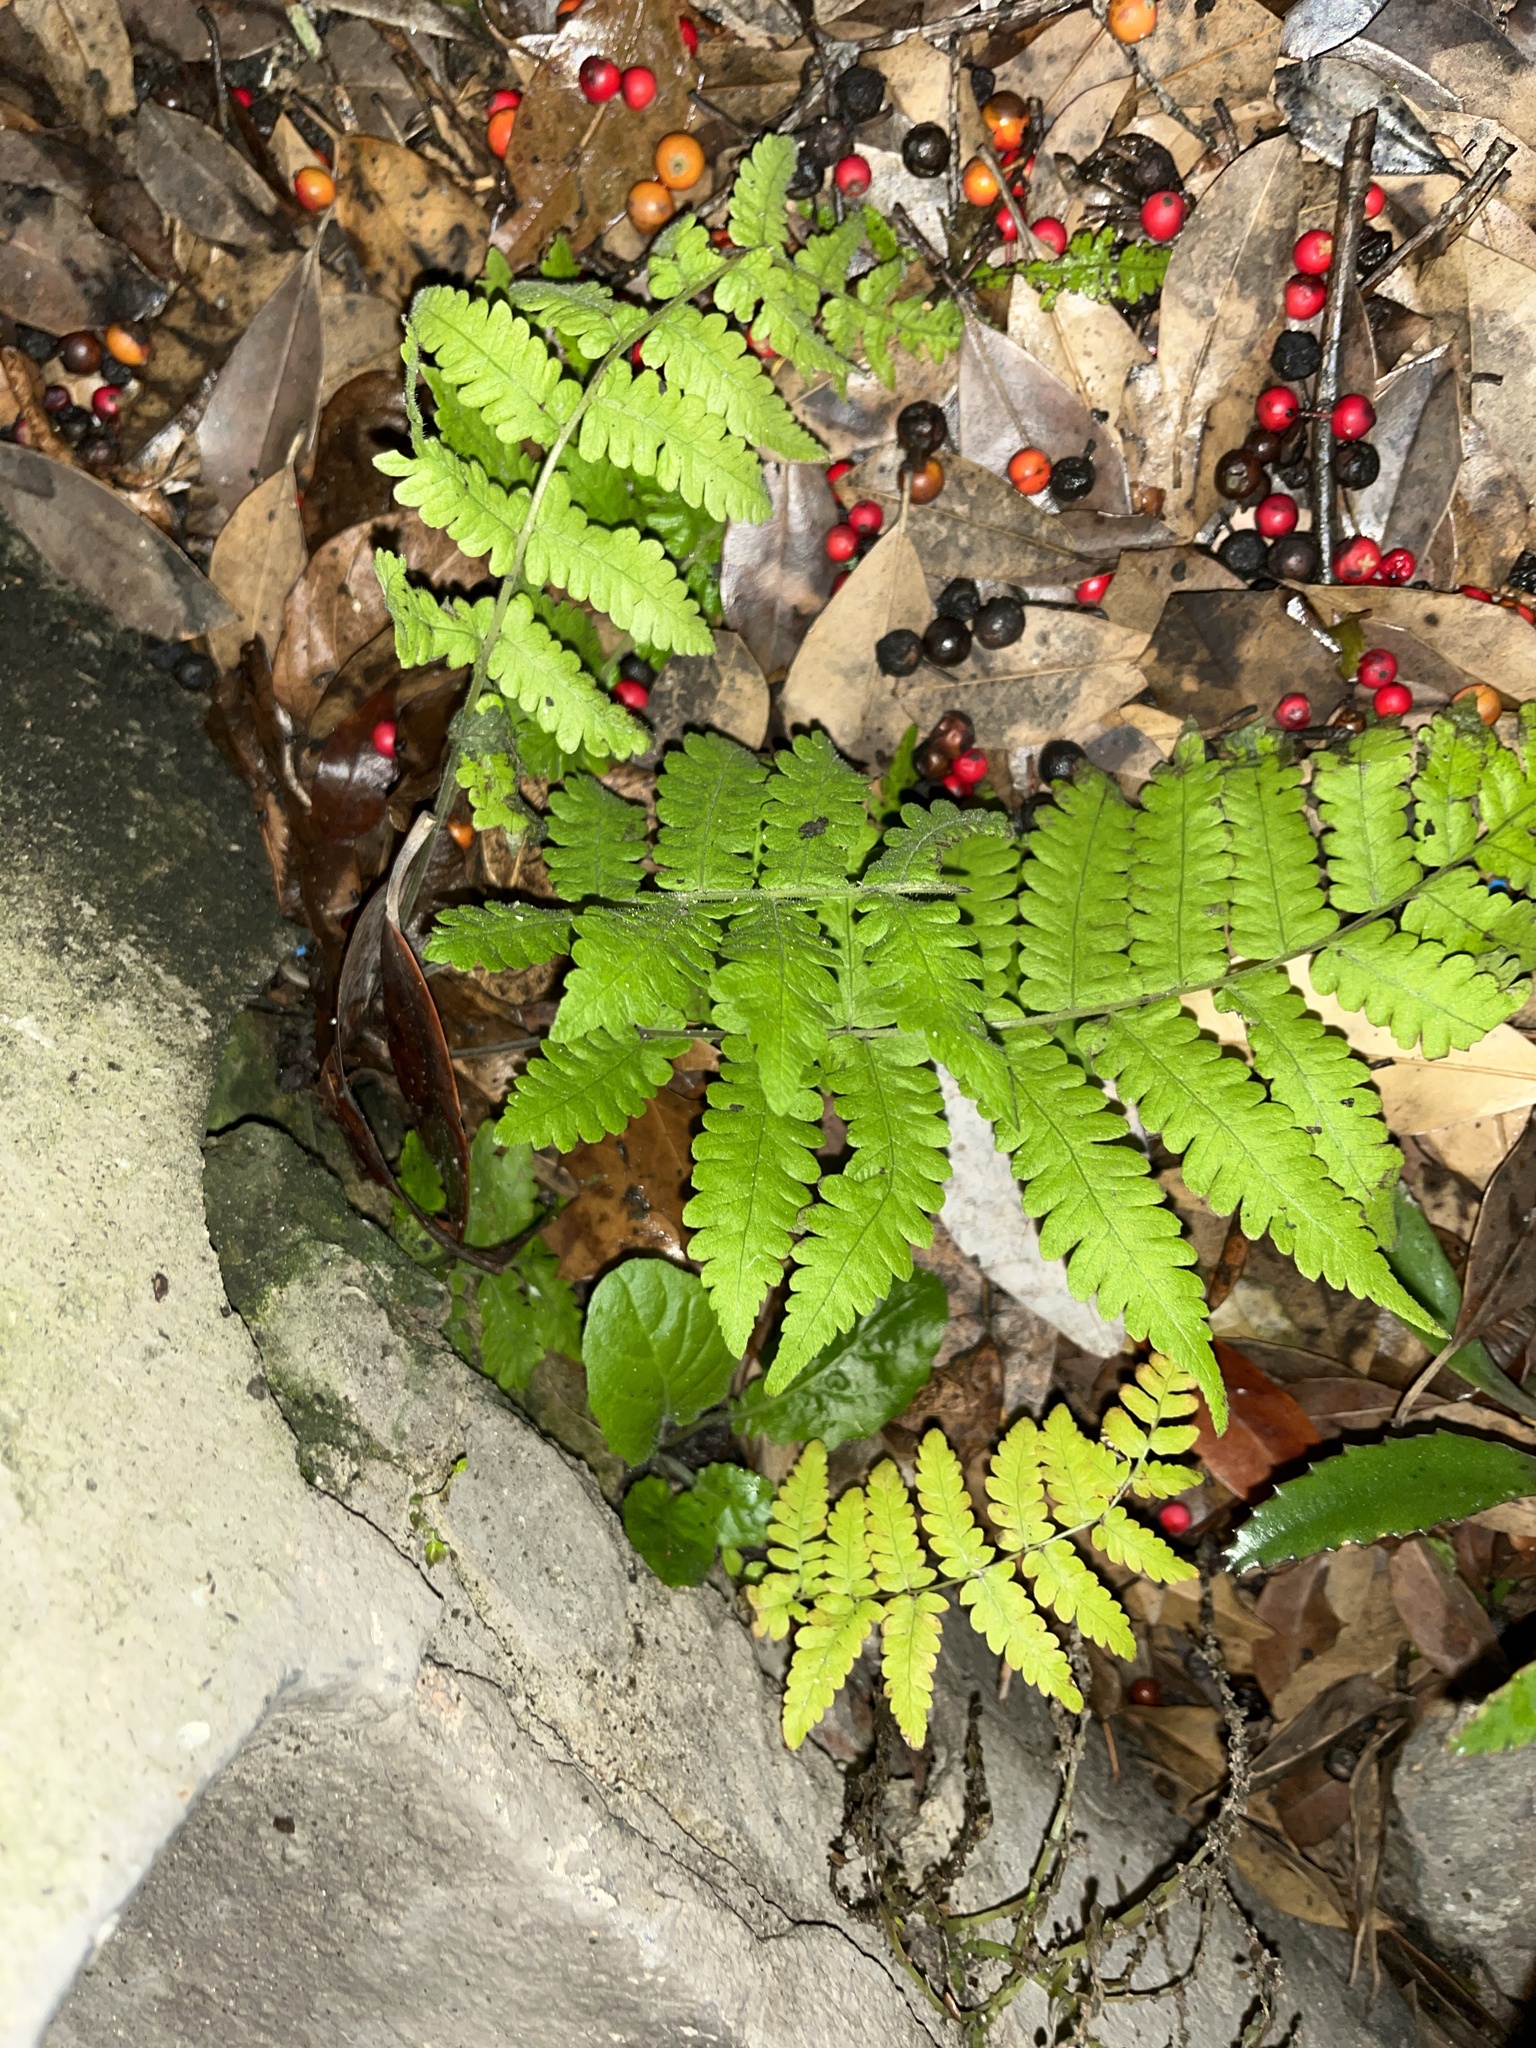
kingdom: Plantae
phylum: Tracheophyta
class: Polypodiopsida
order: Polypodiales
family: Athyriaceae
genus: Deparia
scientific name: Deparia petersenii
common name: Japanese false spleenwort
